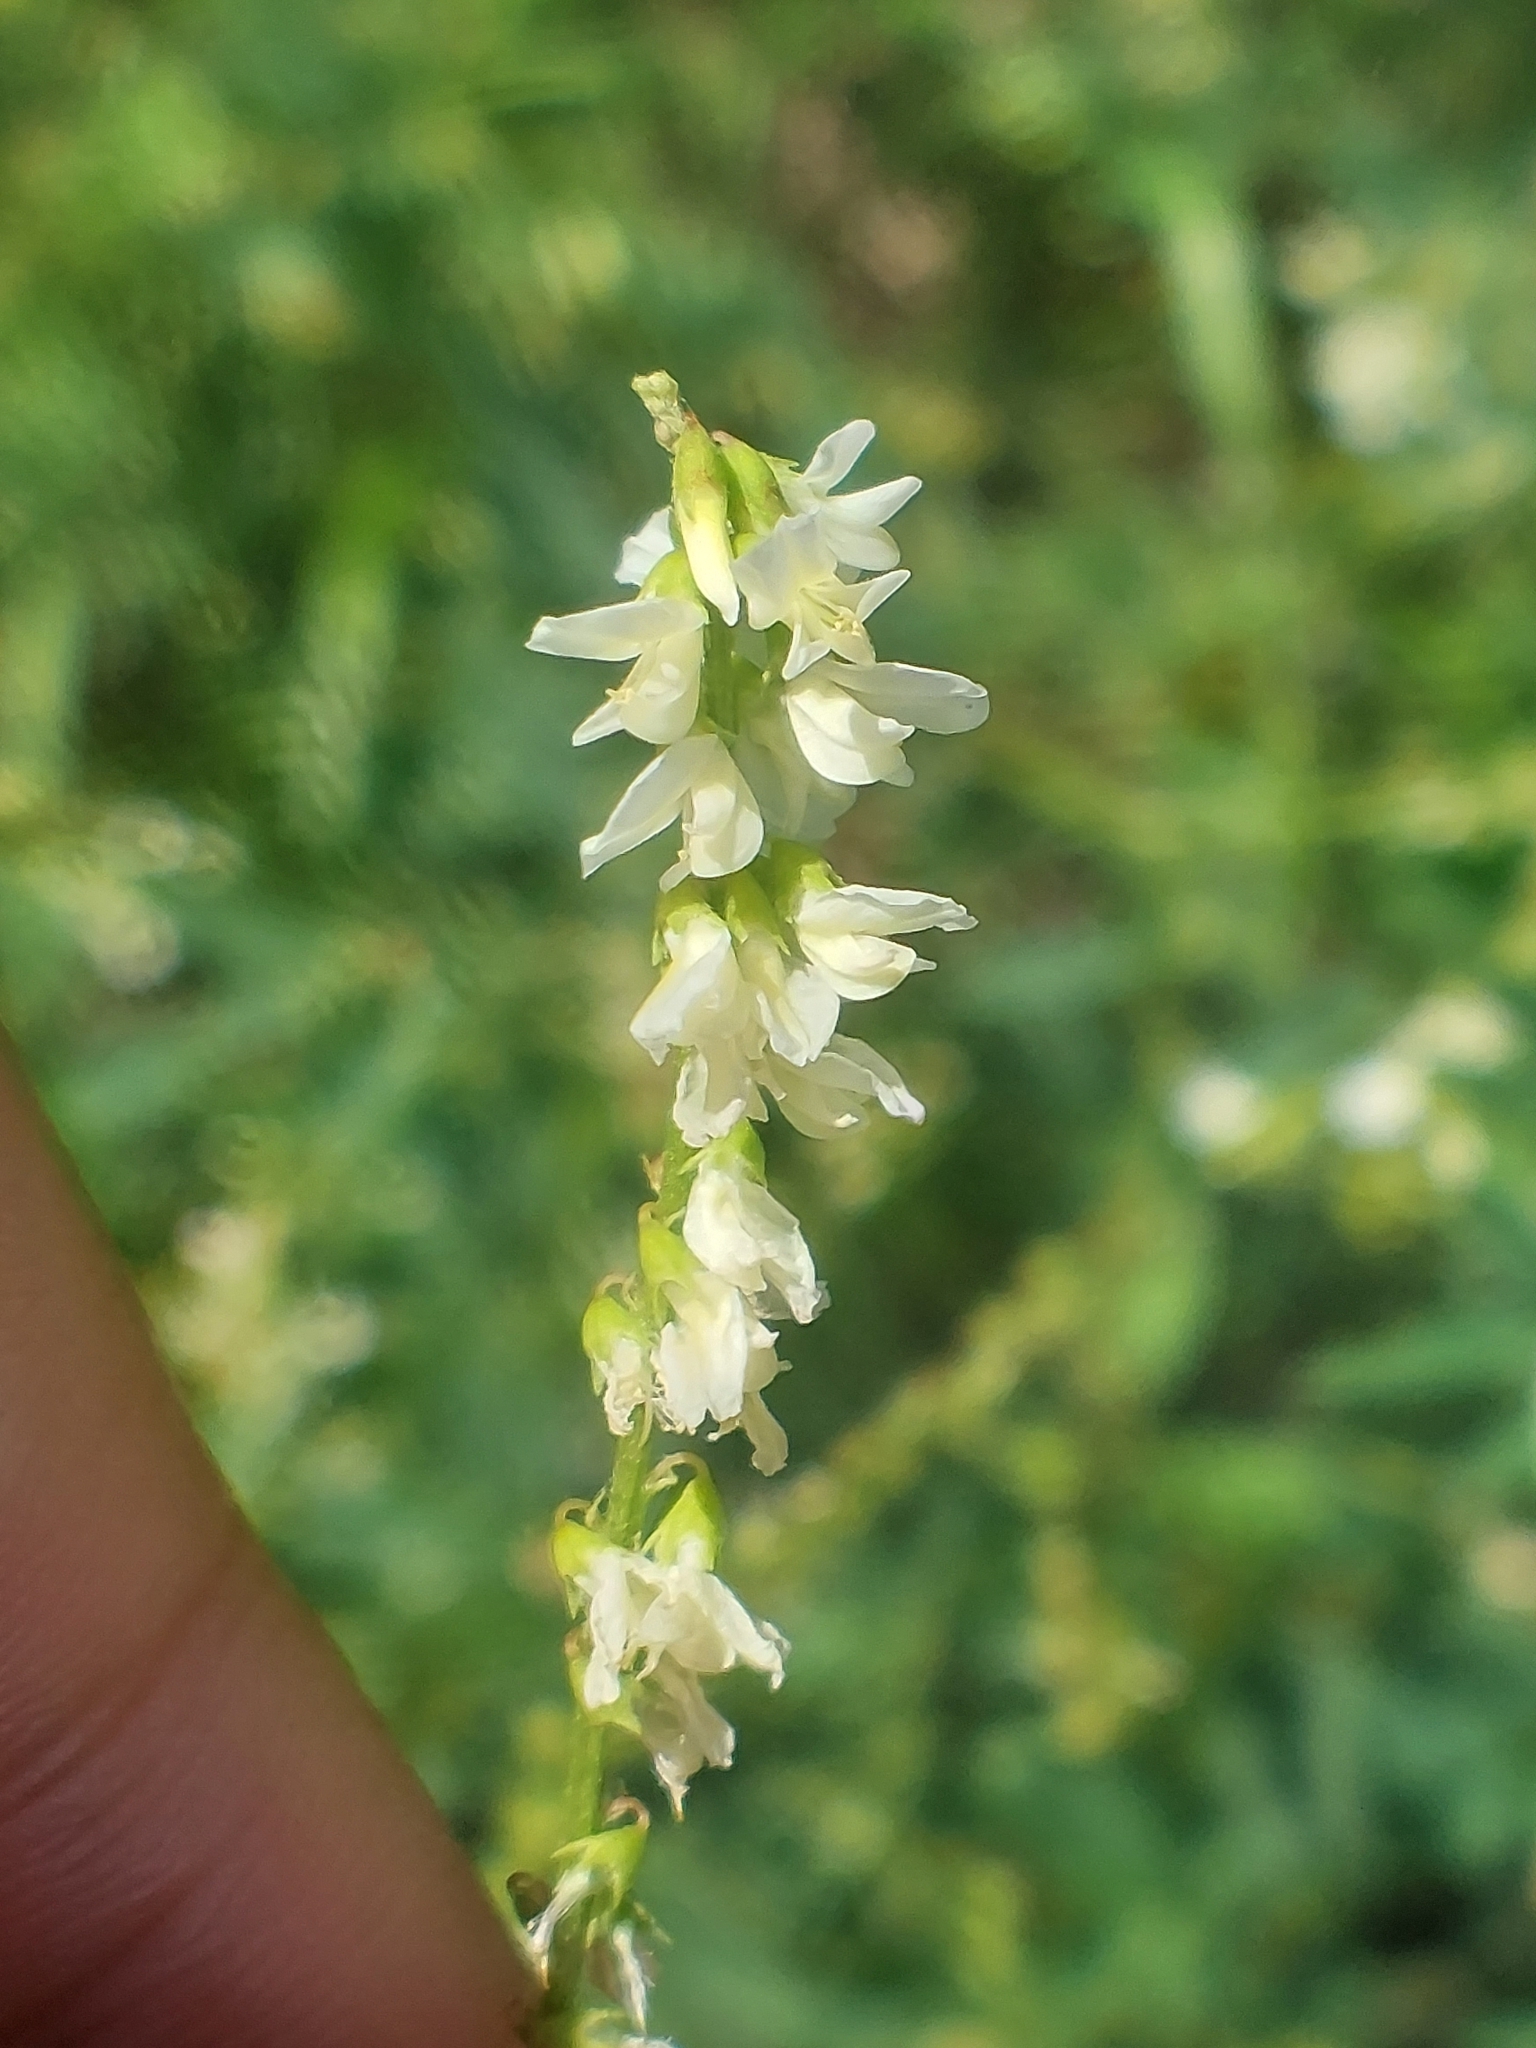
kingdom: Plantae
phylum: Tracheophyta
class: Magnoliopsida
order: Fabales
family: Fabaceae
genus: Melilotus
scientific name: Melilotus albus
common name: White melilot
